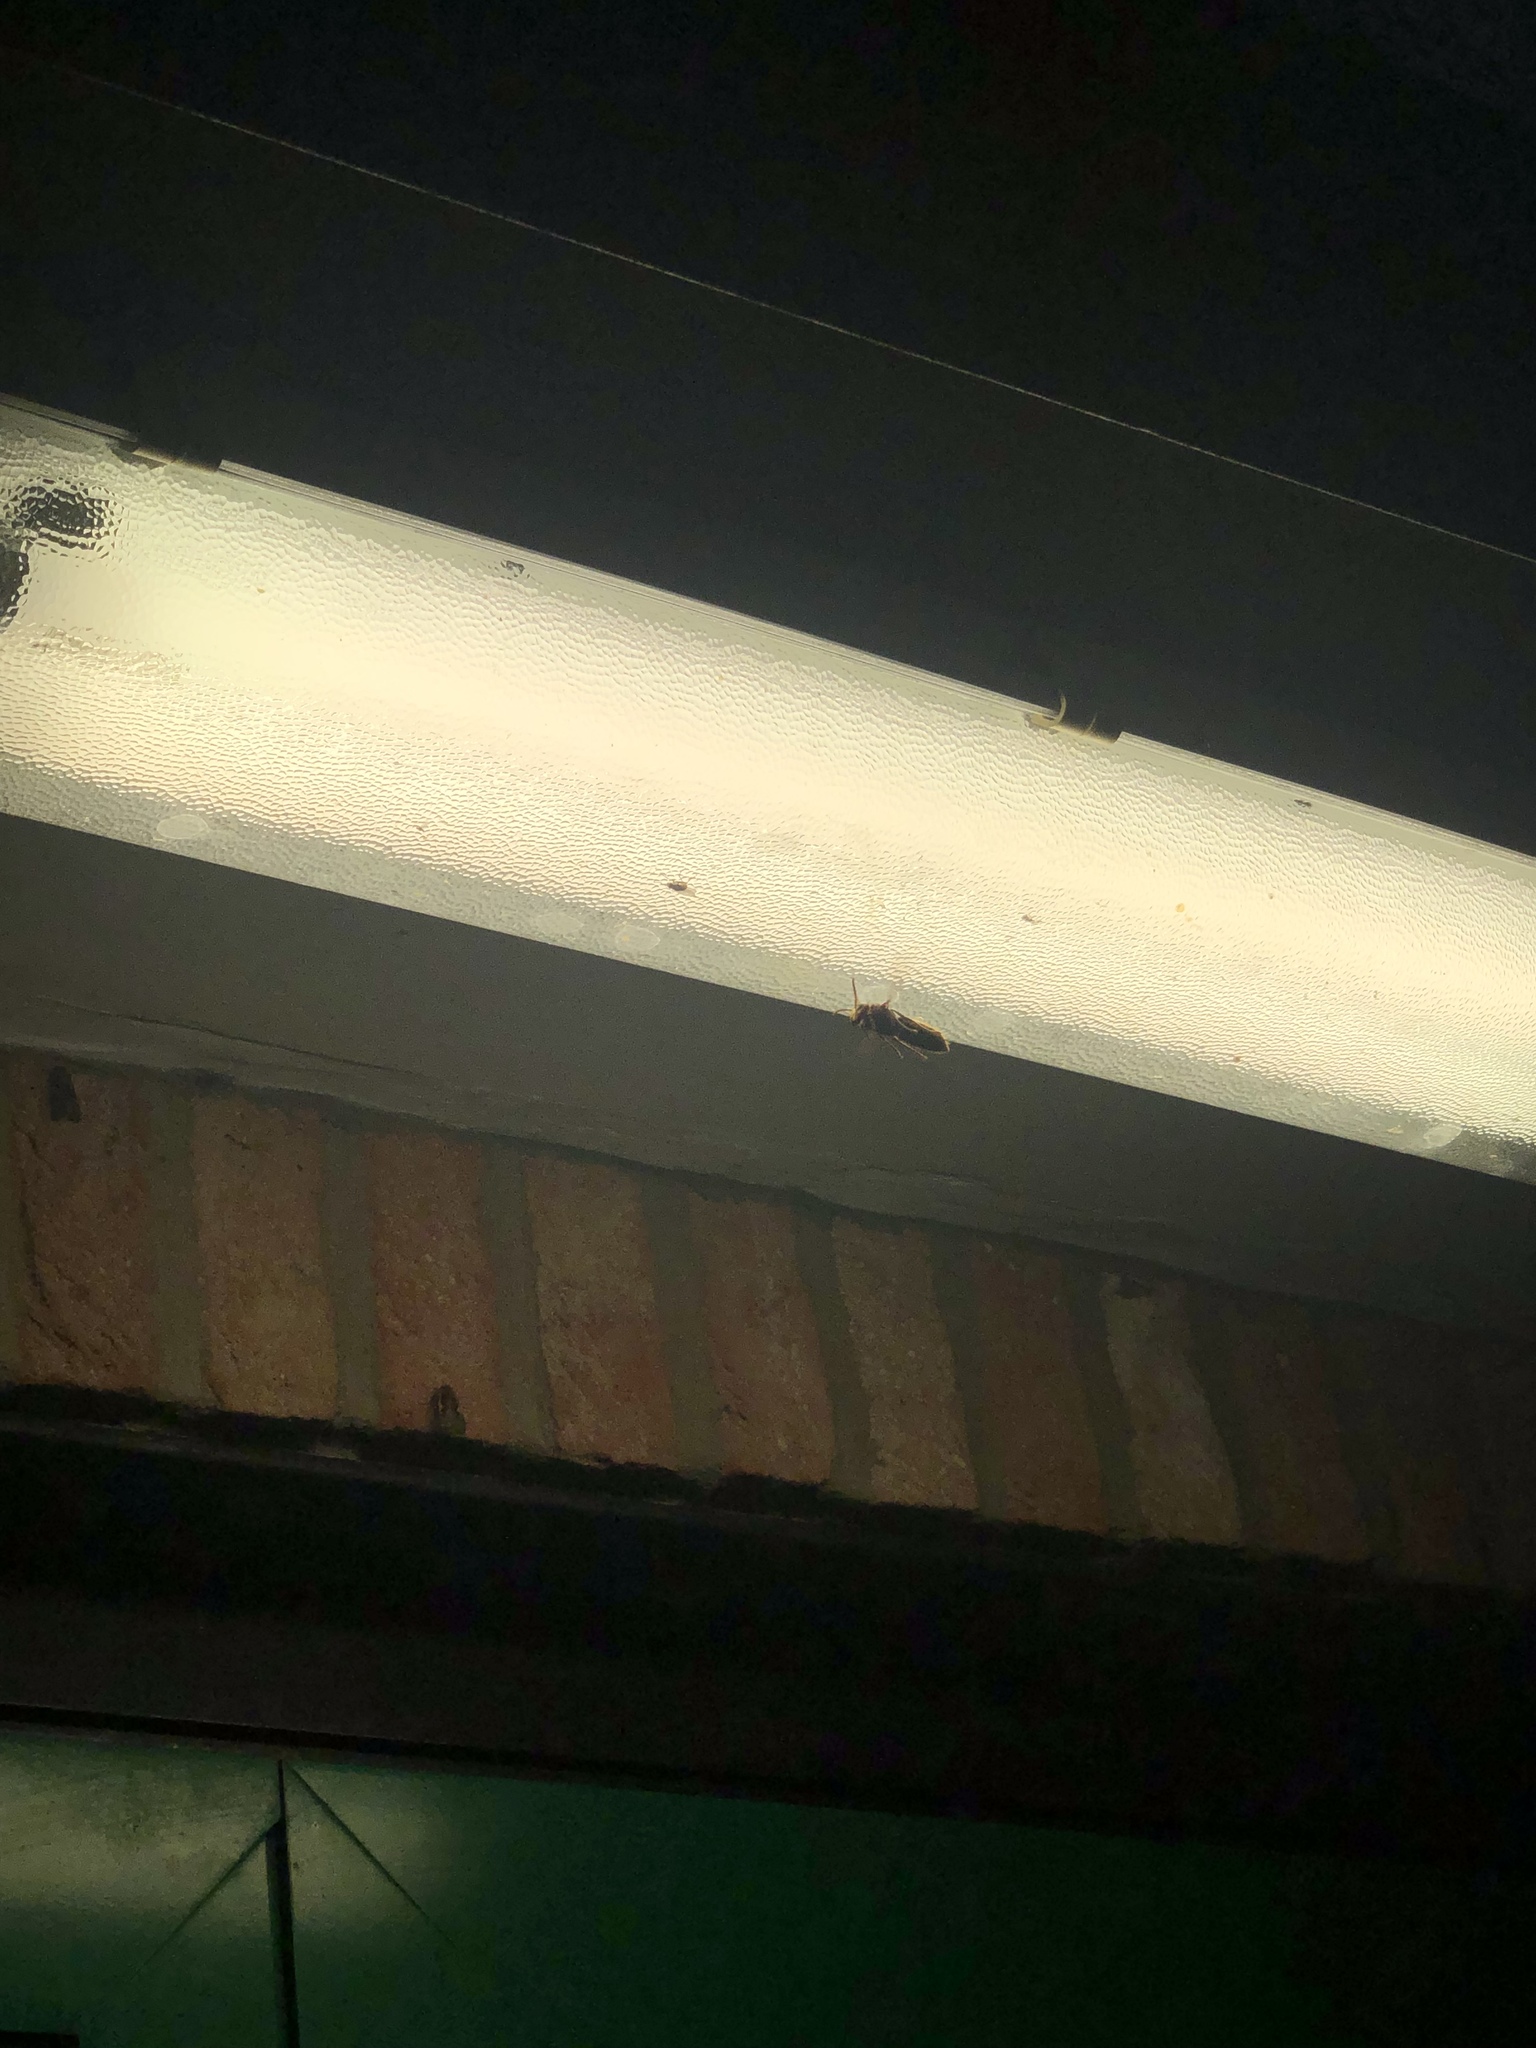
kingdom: Animalia
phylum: Arthropoda
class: Insecta
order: Hymenoptera
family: Vespidae
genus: Vespa
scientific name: Vespa crabro
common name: Hornet
